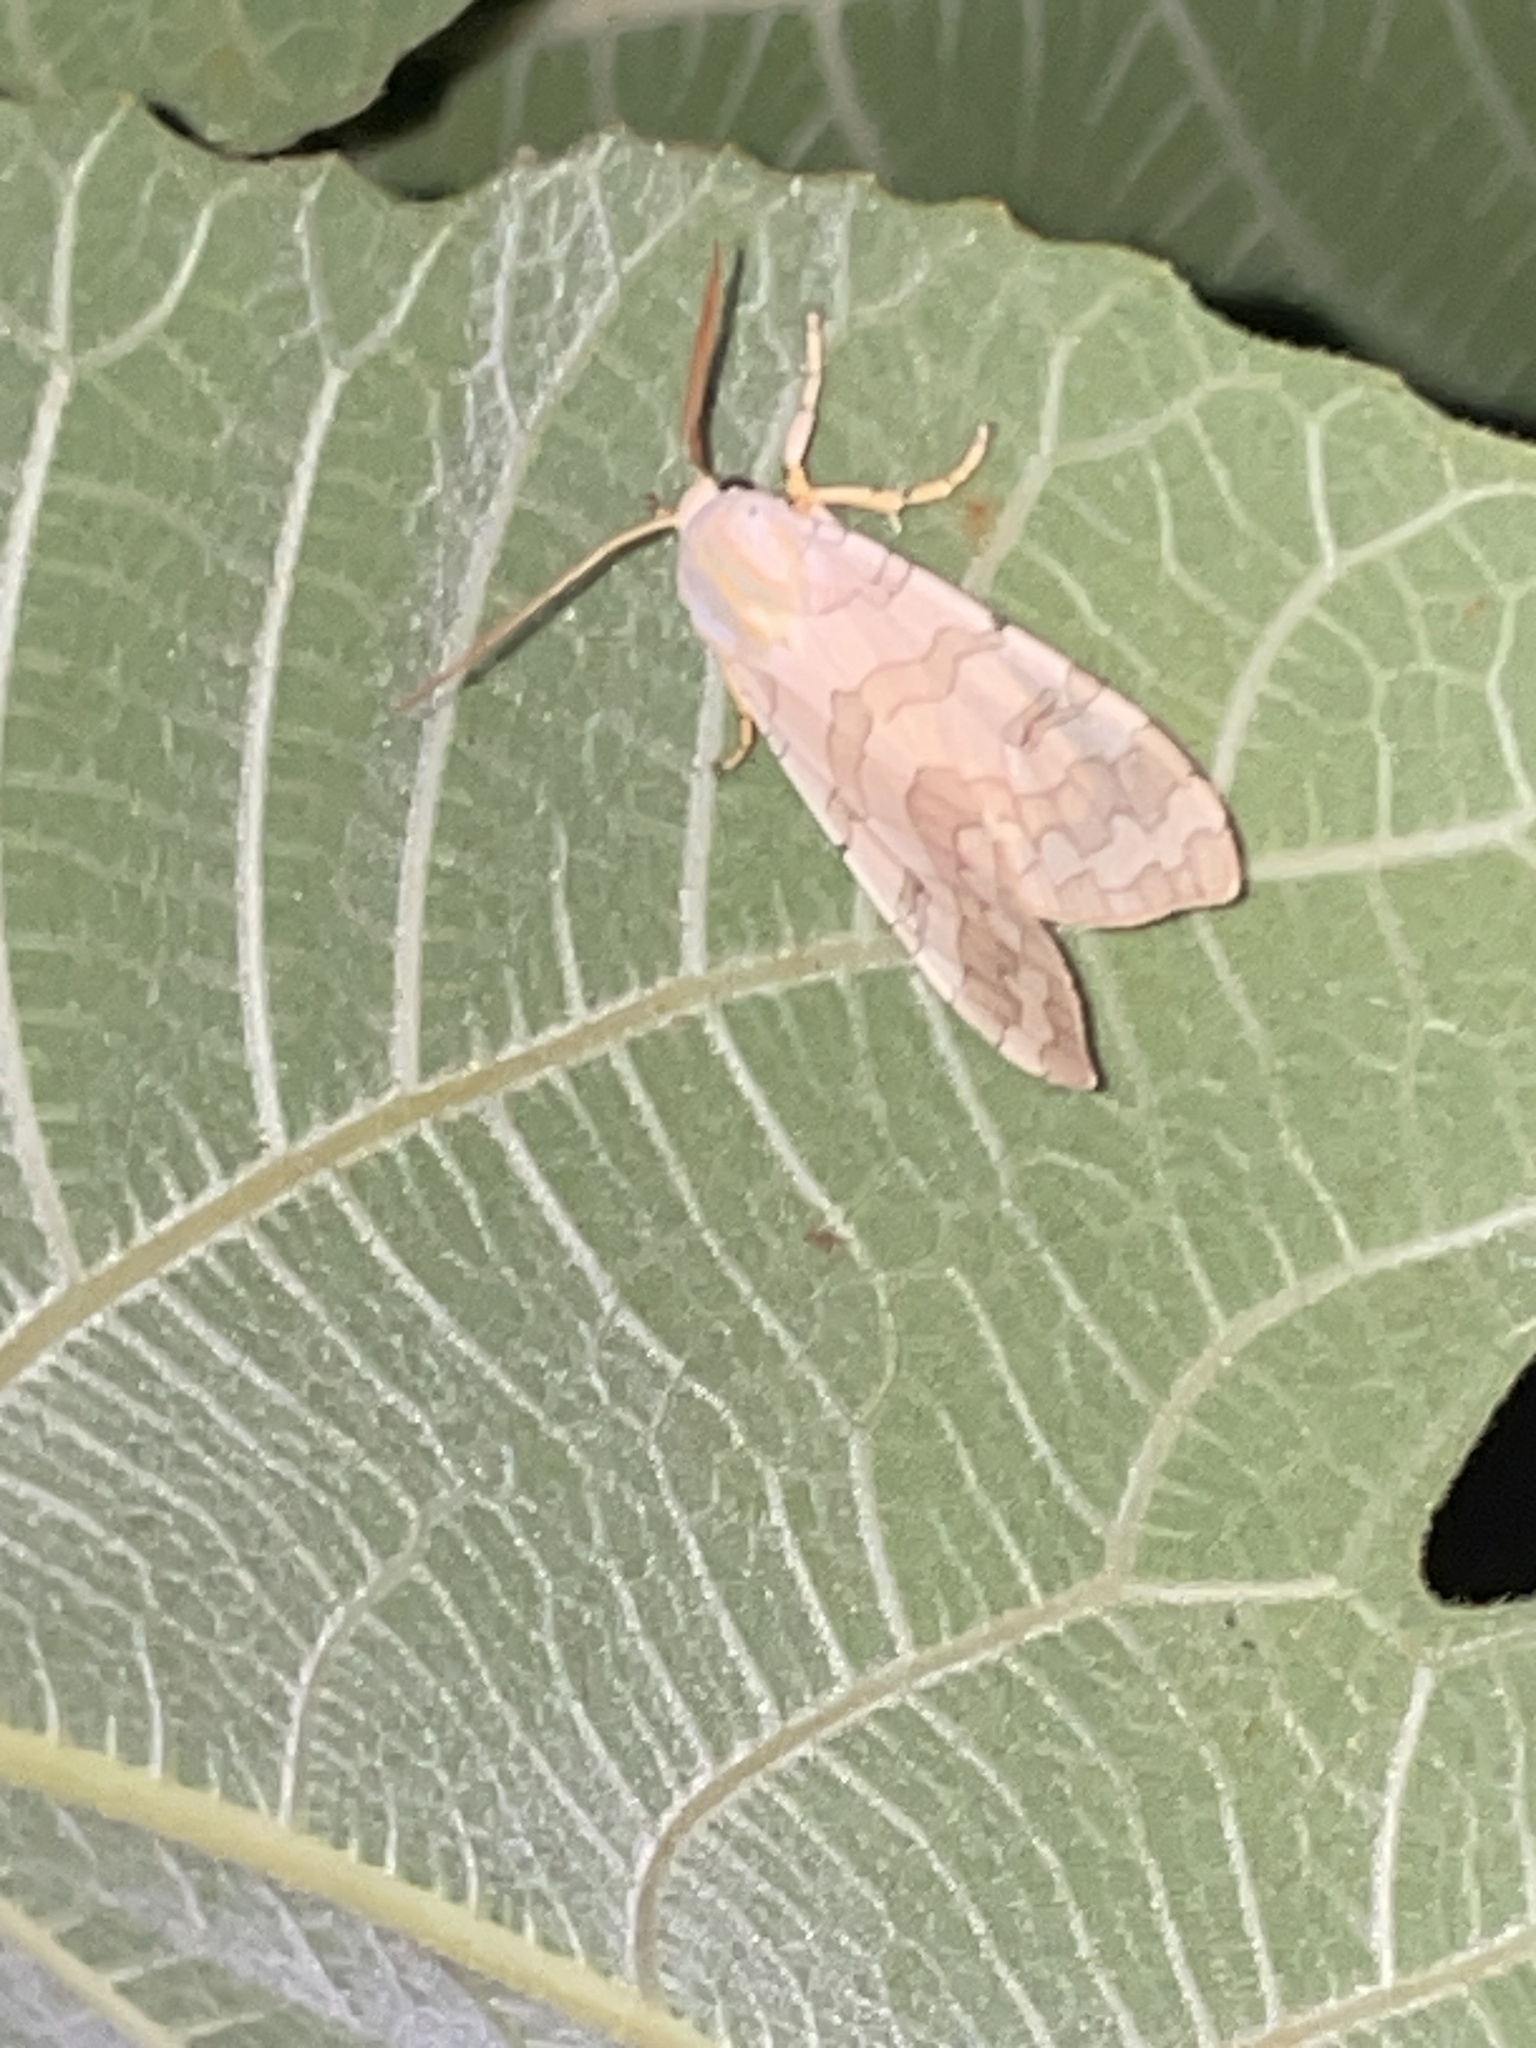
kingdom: Animalia
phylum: Arthropoda
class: Insecta
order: Lepidoptera
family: Erebidae
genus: Halysidota
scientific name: Halysidota
